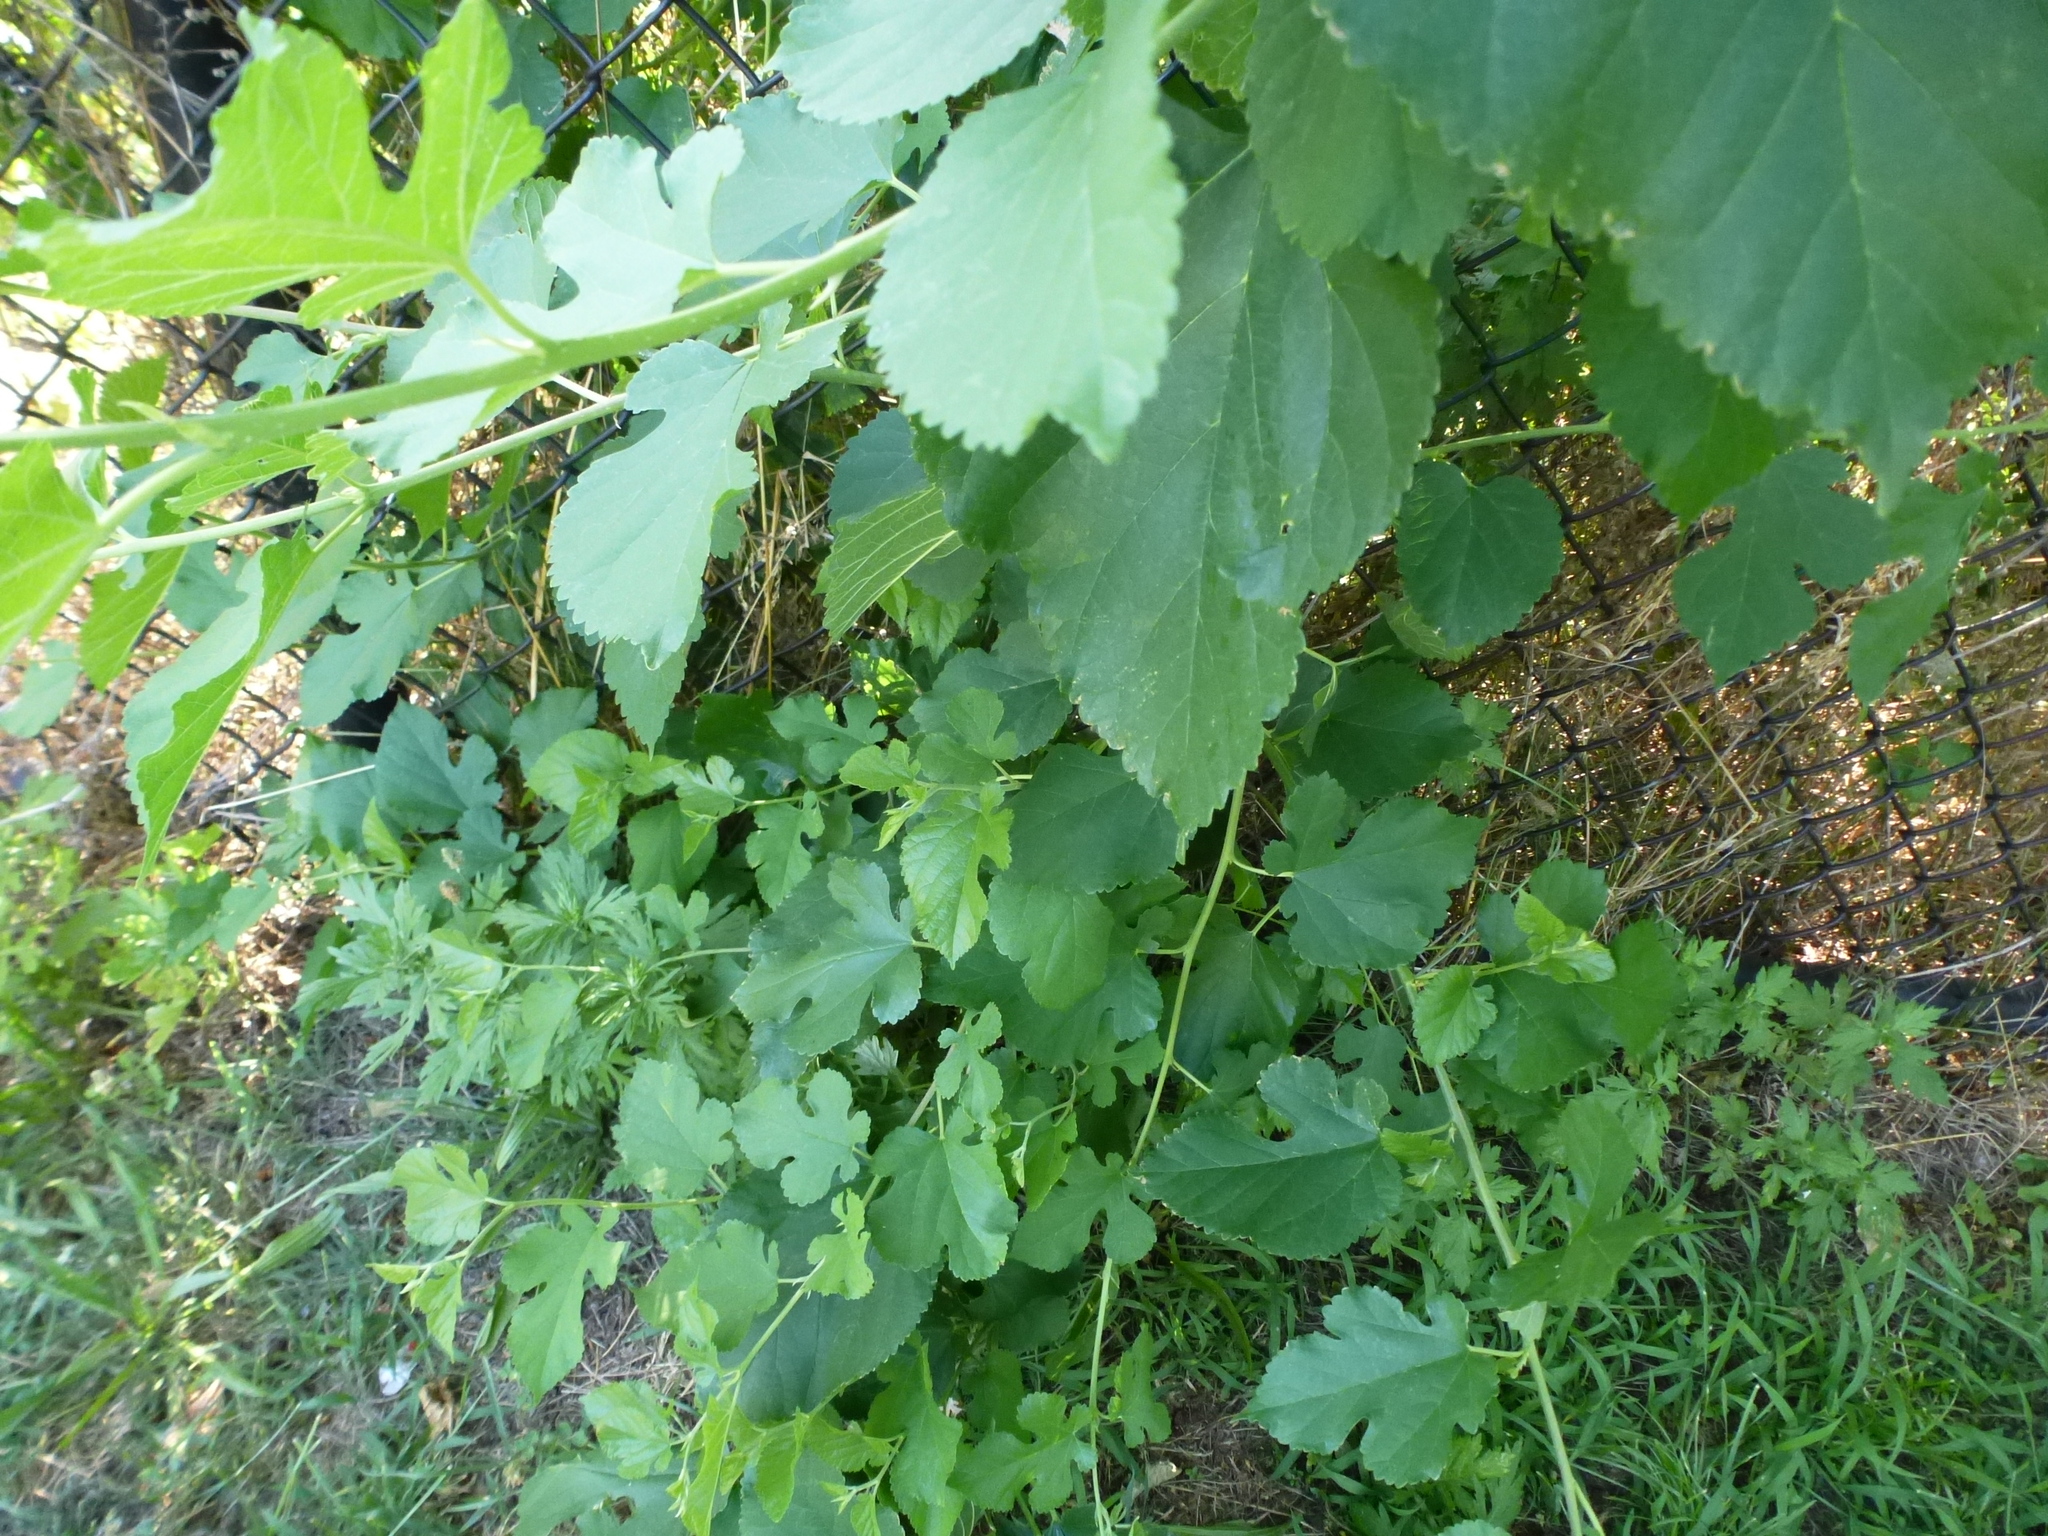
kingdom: Plantae
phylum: Tracheophyta
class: Magnoliopsida
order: Rosales
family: Moraceae
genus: Morus
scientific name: Morus alba
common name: White mulberry
